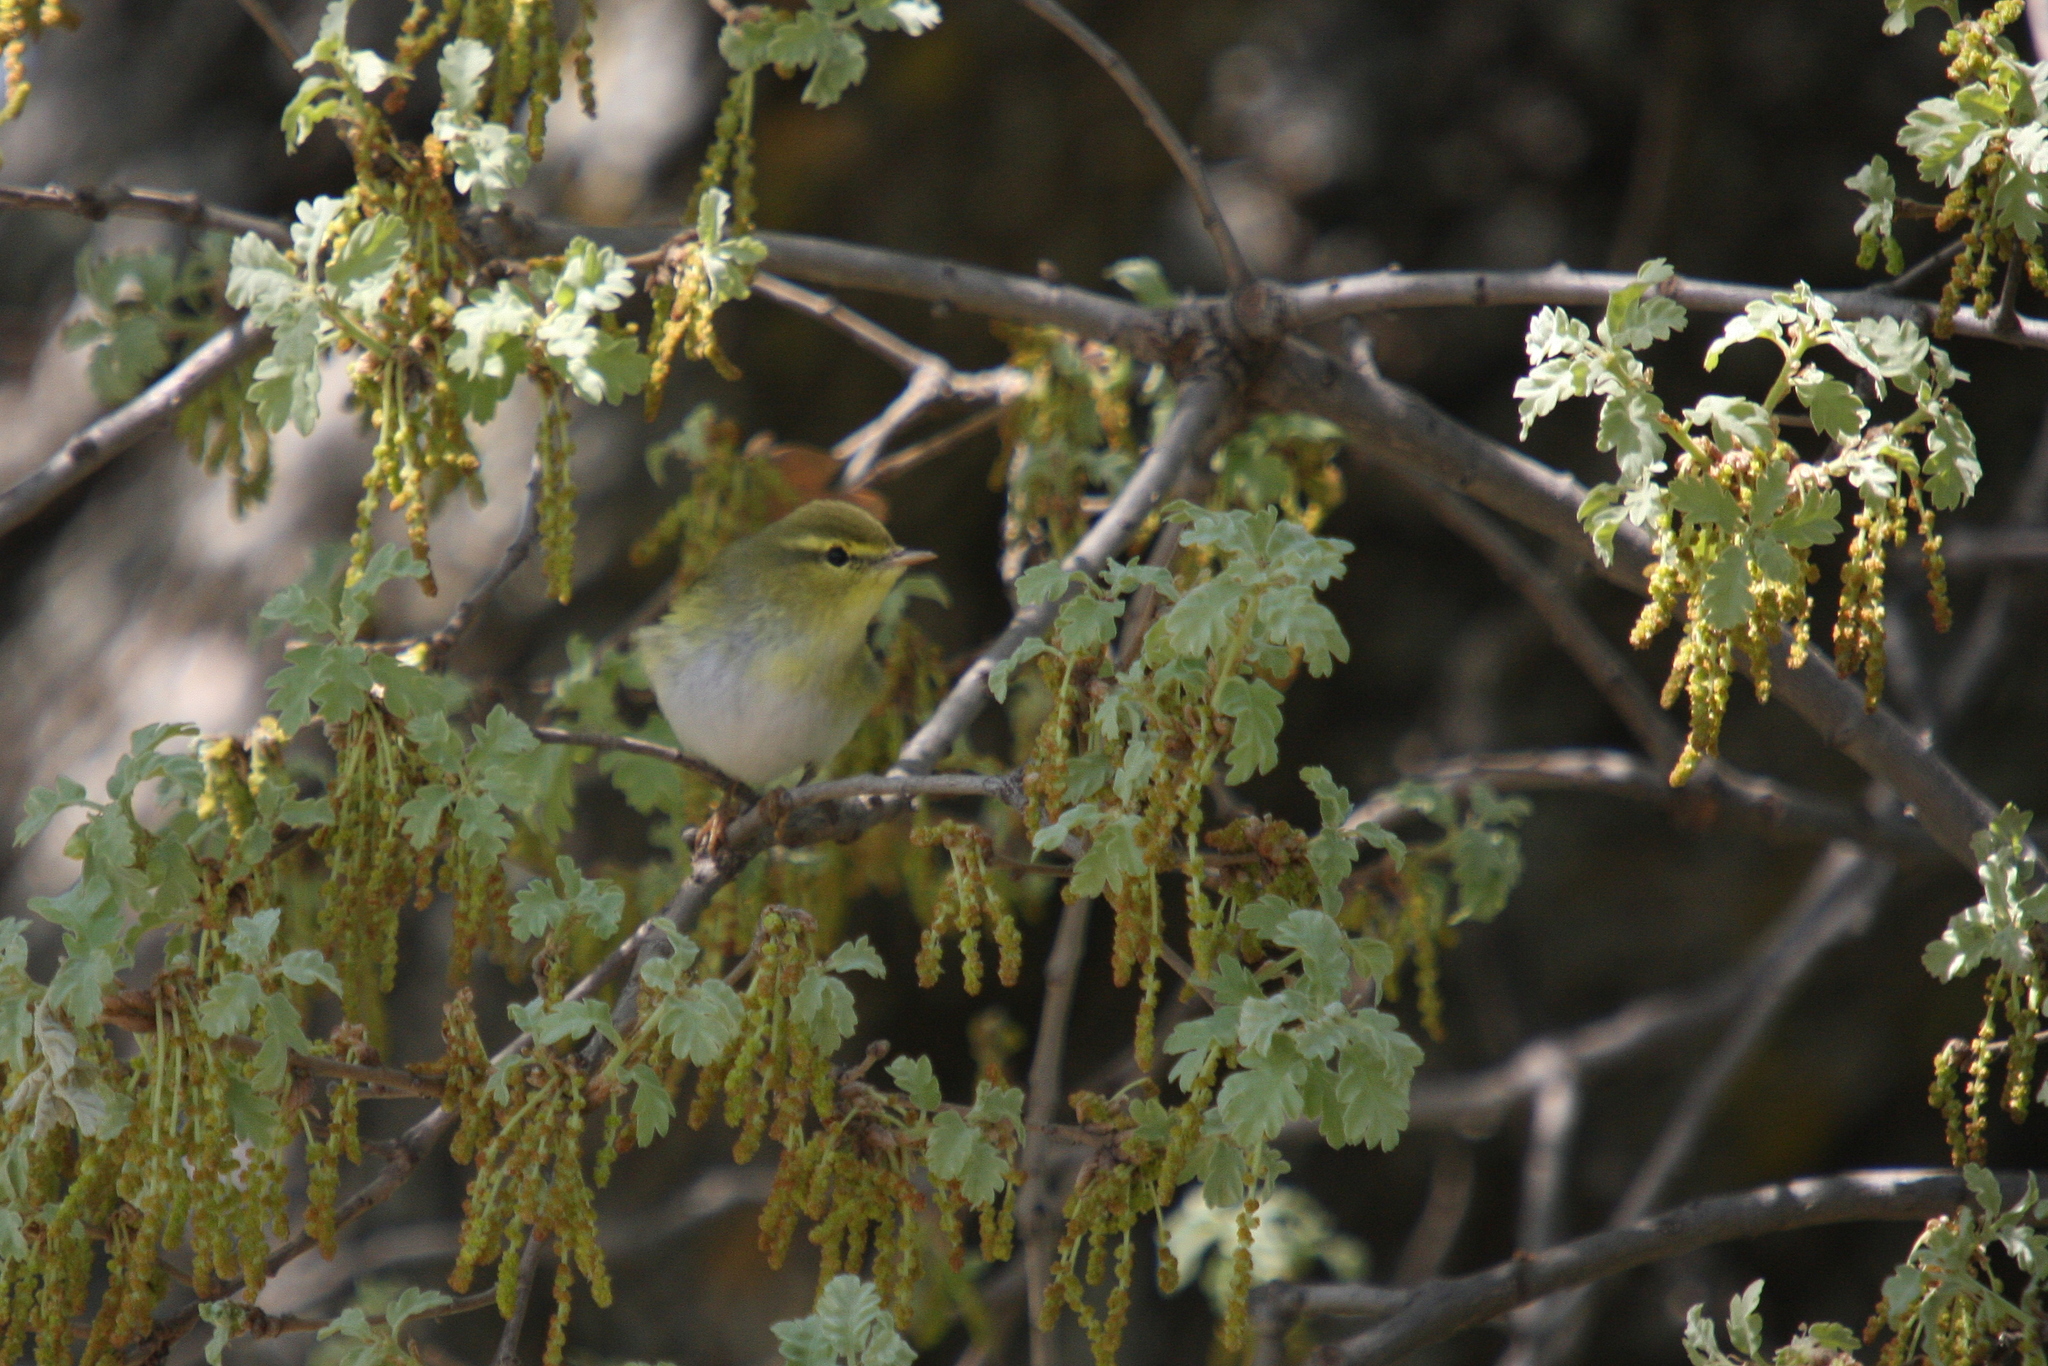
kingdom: Animalia
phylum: Chordata
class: Aves
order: Passeriformes
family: Phylloscopidae
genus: Phylloscopus
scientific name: Phylloscopus sibillatrix
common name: Wood warbler
